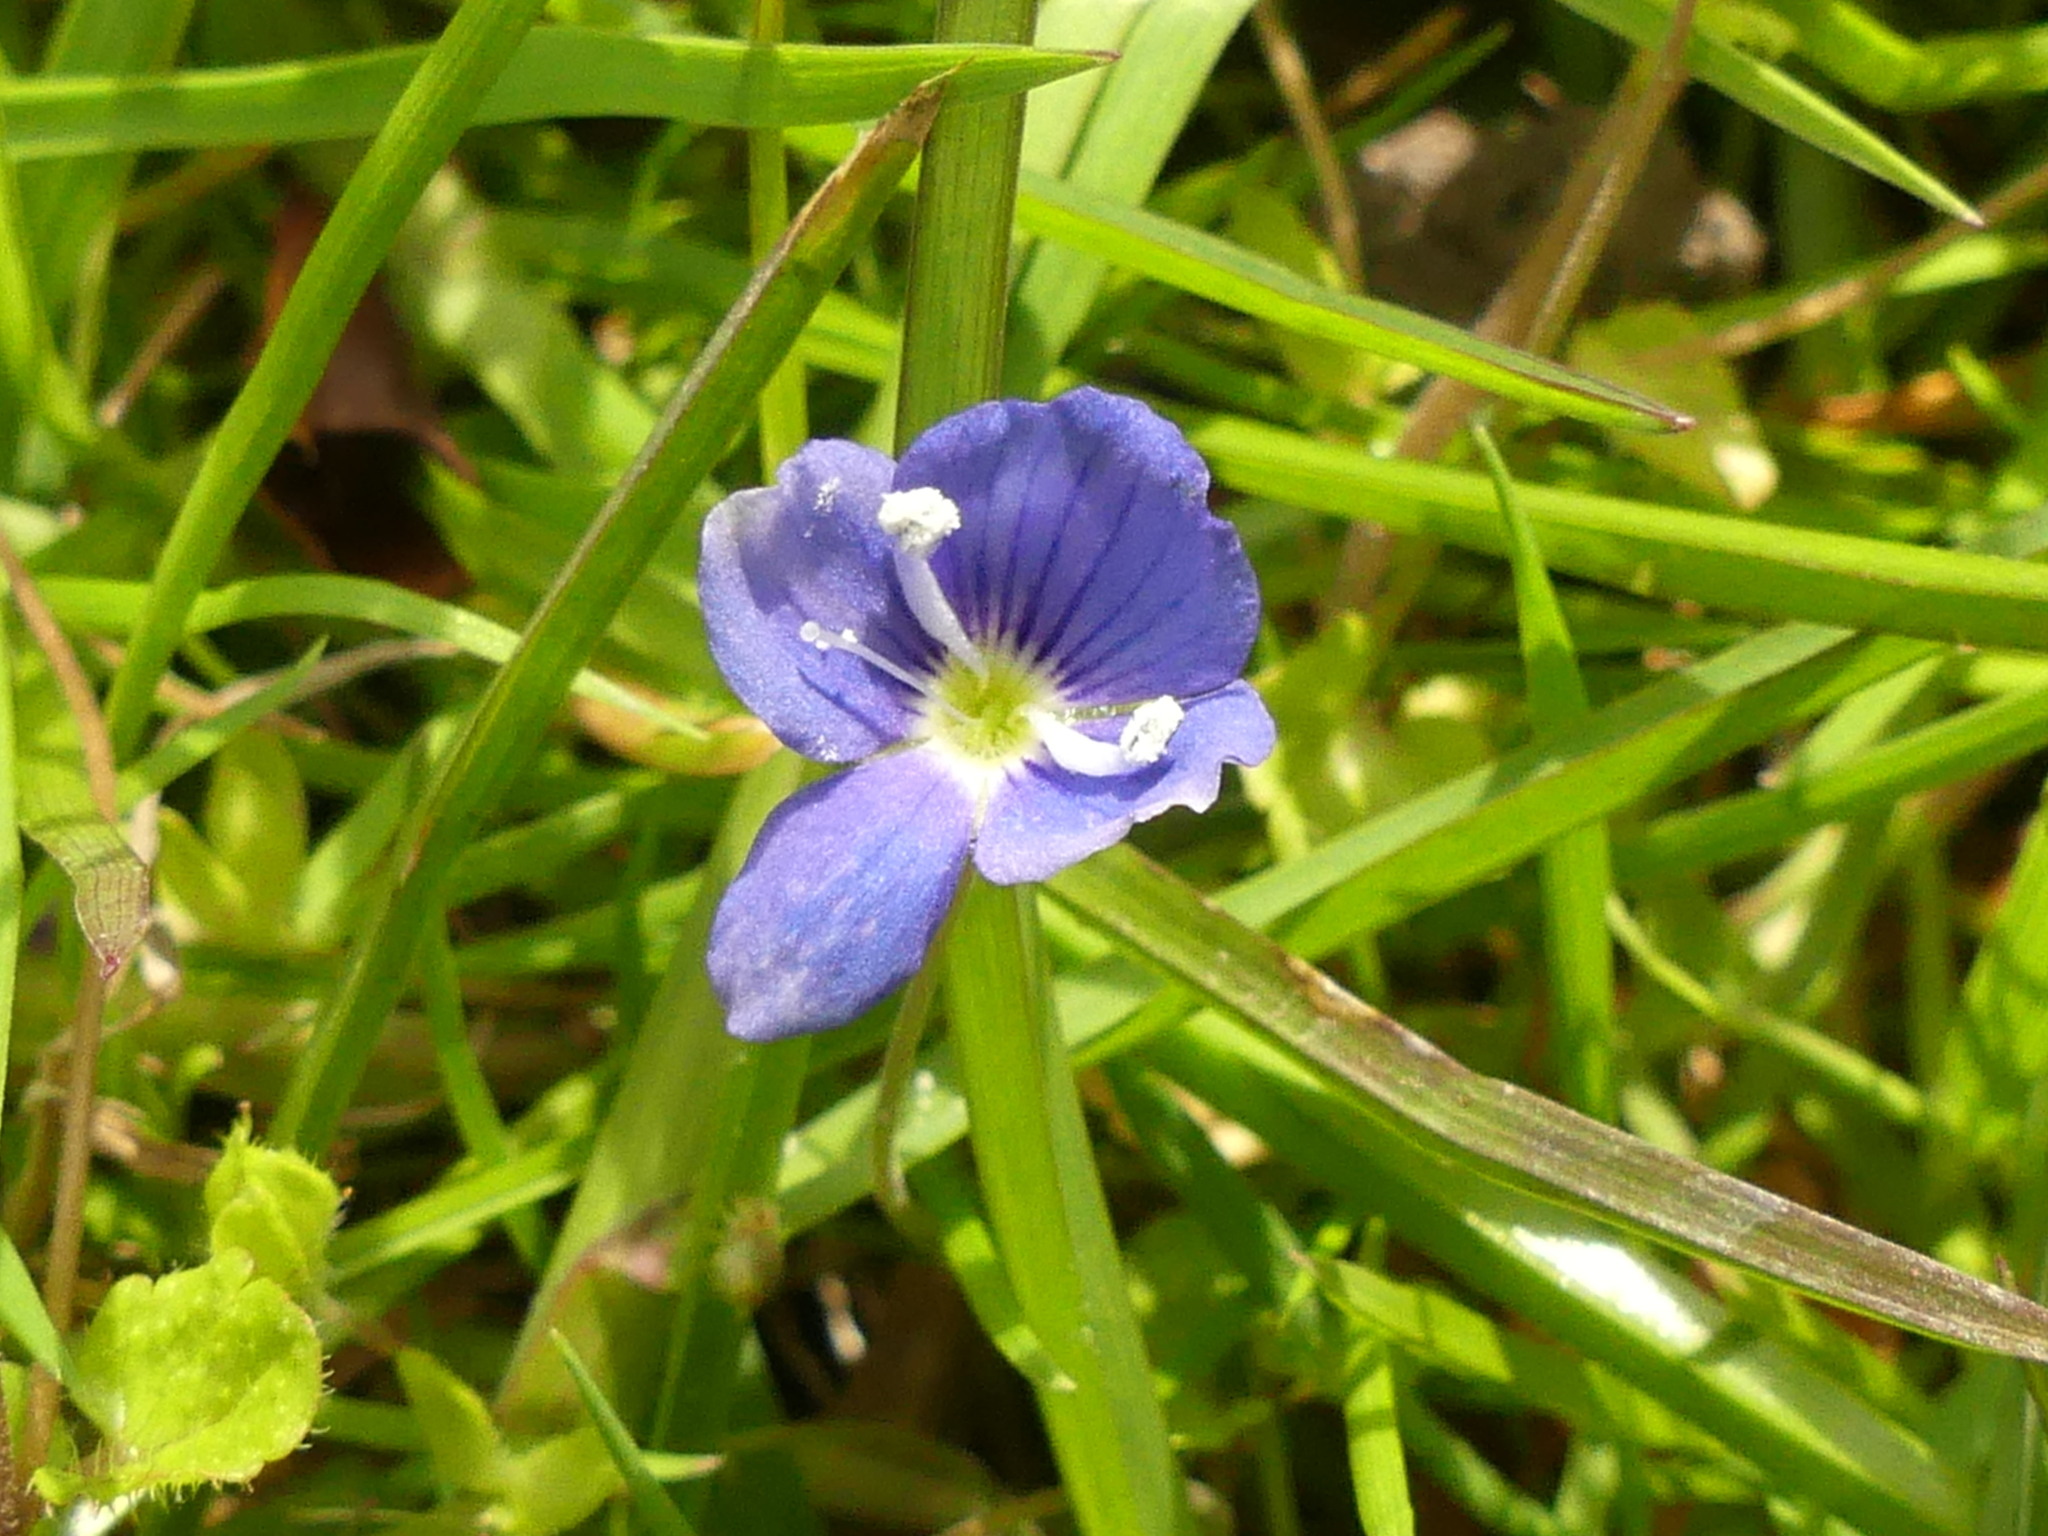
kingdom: Plantae
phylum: Tracheophyta
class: Magnoliopsida
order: Lamiales
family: Plantaginaceae
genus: Veronica
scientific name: Veronica filiformis
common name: Slender speedwell
